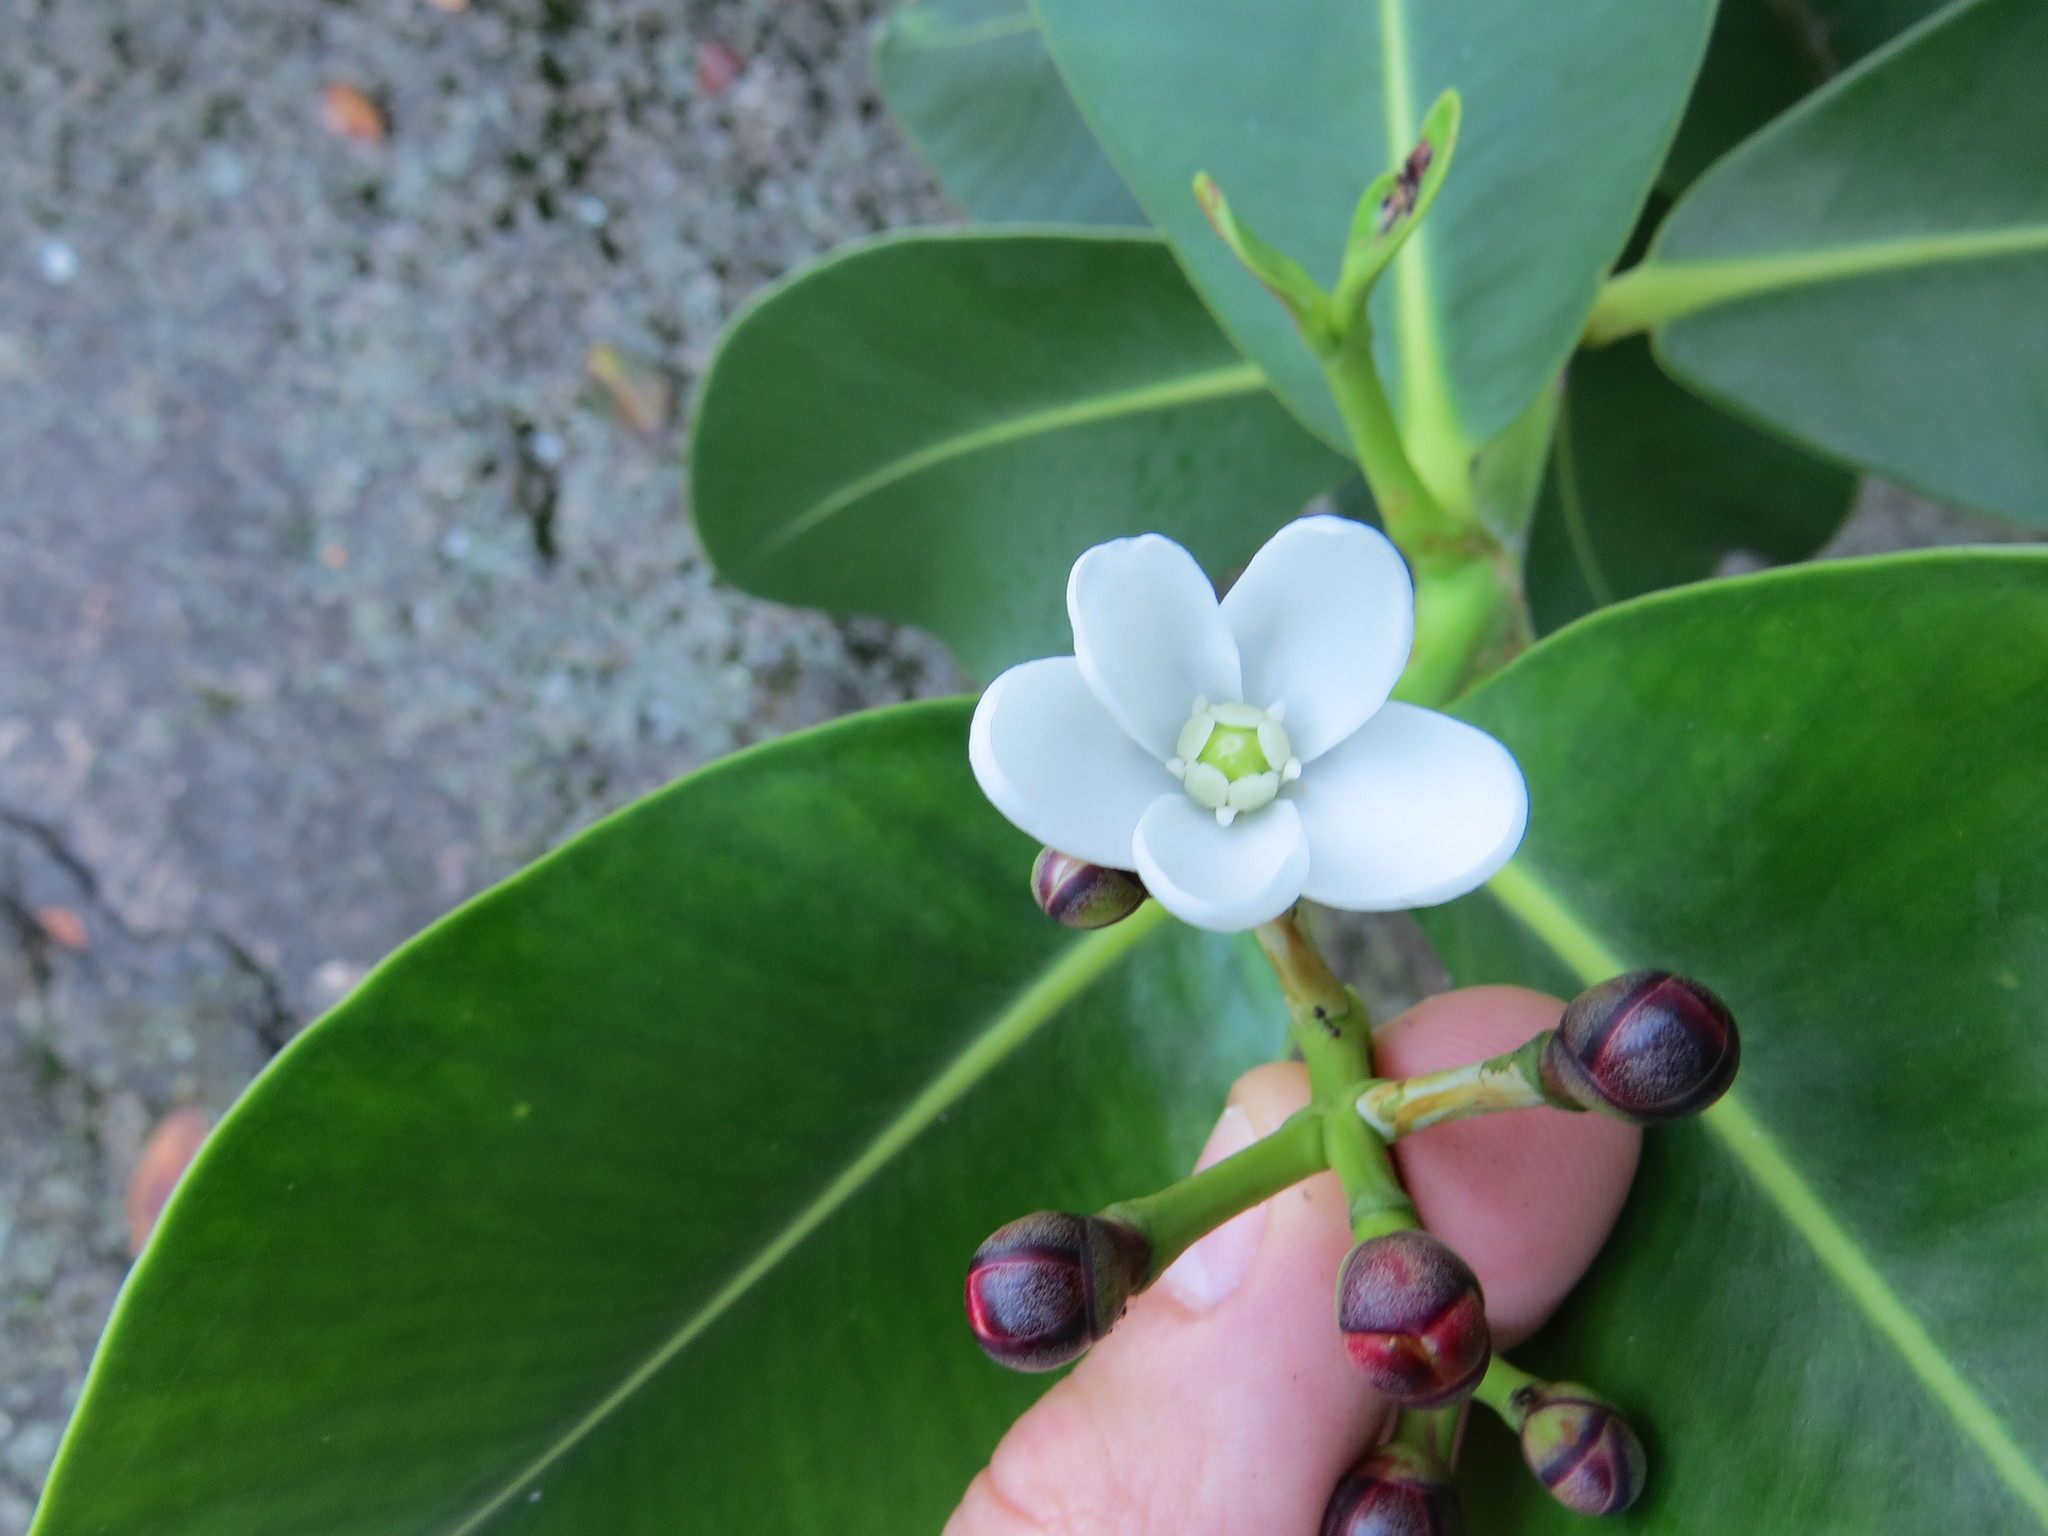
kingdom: Plantae
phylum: Tracheophyta
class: Magnoliopsida
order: Malpighiales
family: Clusiaceae
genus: Clusia
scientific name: Clusia criuva
